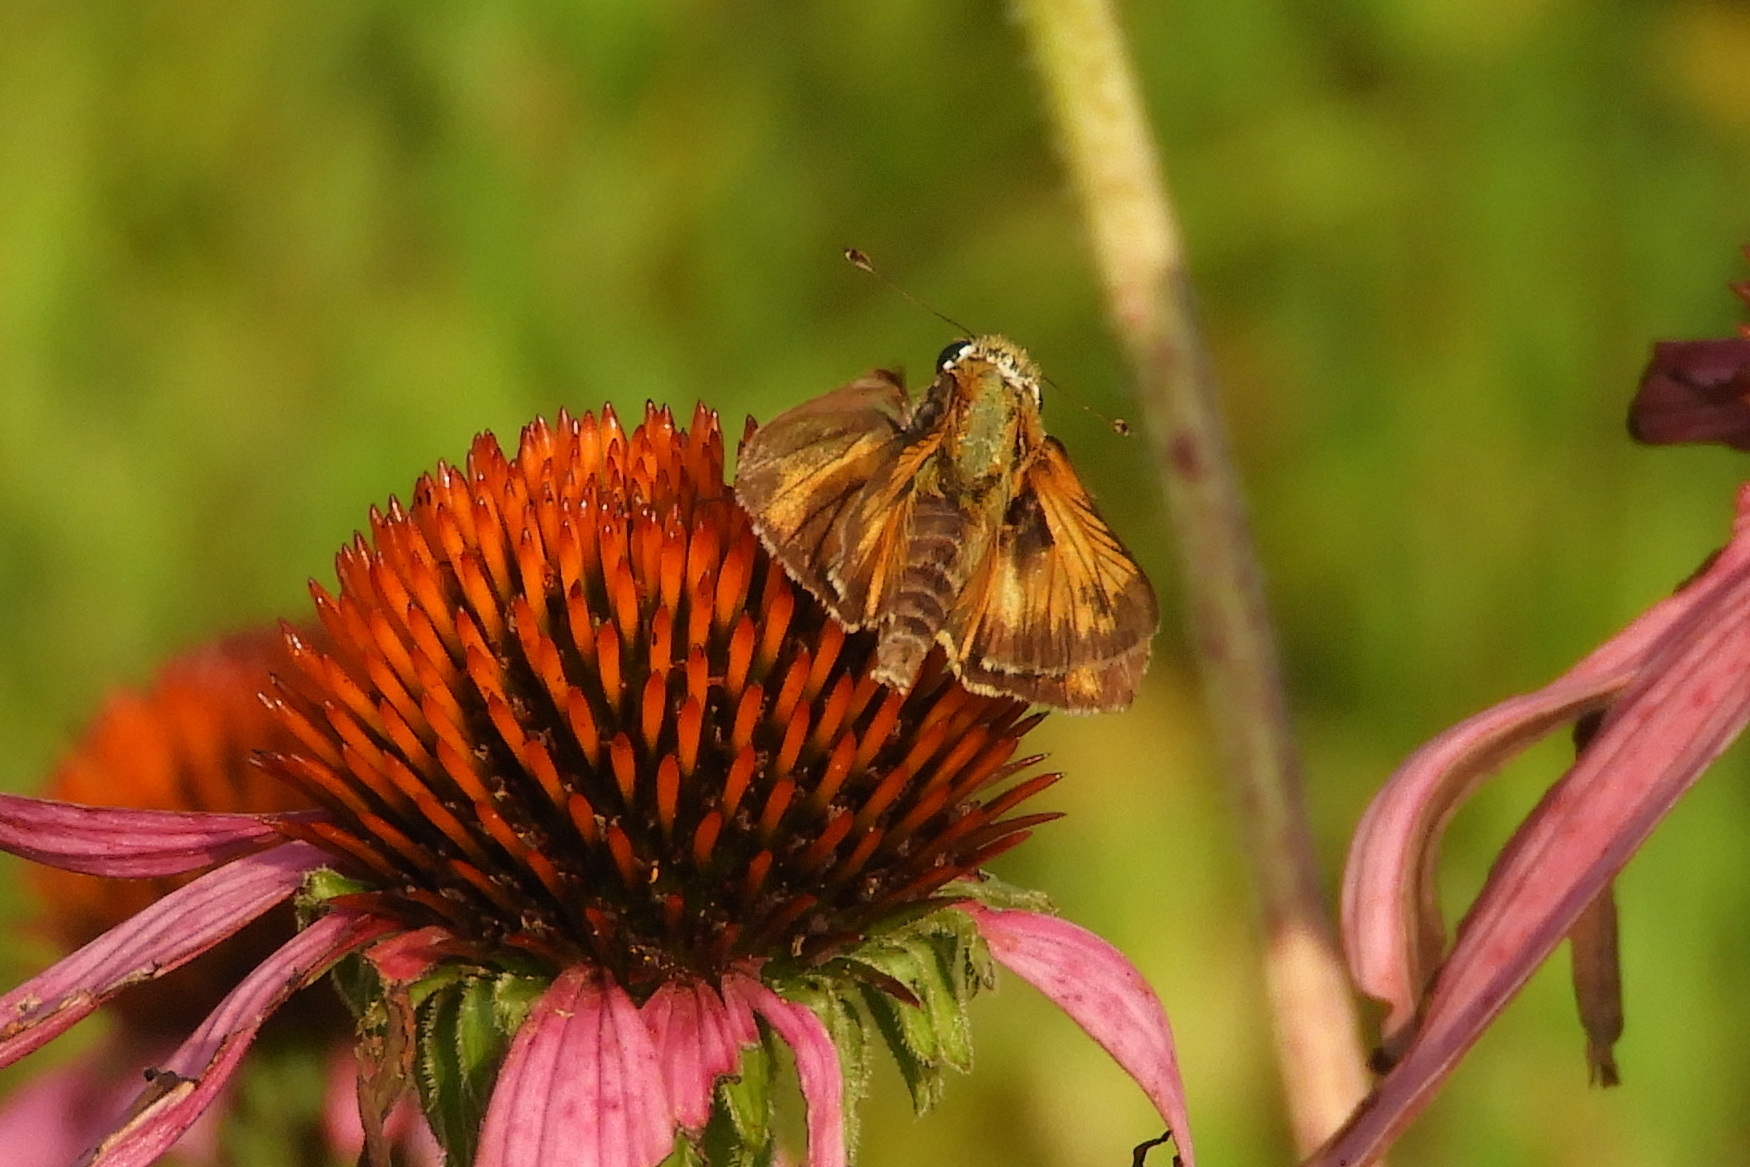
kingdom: Animalia
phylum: Arthropoda
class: Insecta
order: Lepidoptera
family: Hesperiidae
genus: Atalopedes
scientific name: Atalopedes
